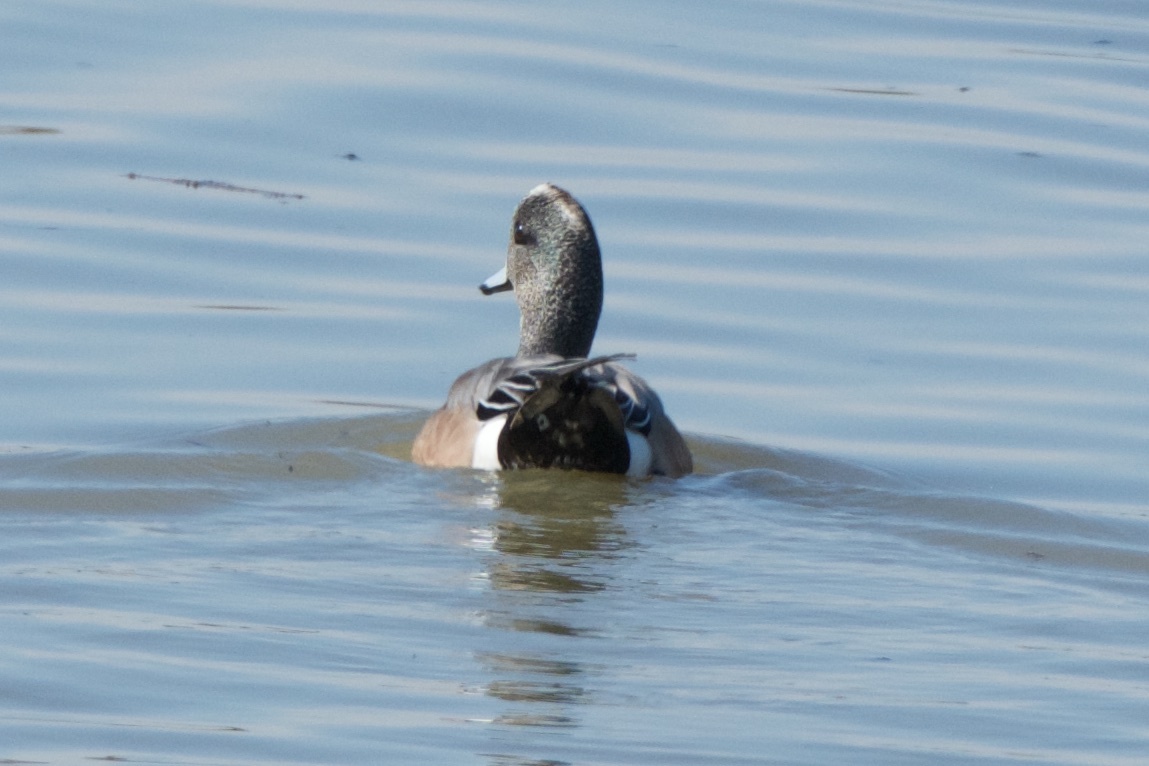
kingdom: Animalia
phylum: Chordata
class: Aves
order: Anseriformes
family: Anatidae
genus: Mareca
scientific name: Mareca americana
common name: American wigeon
